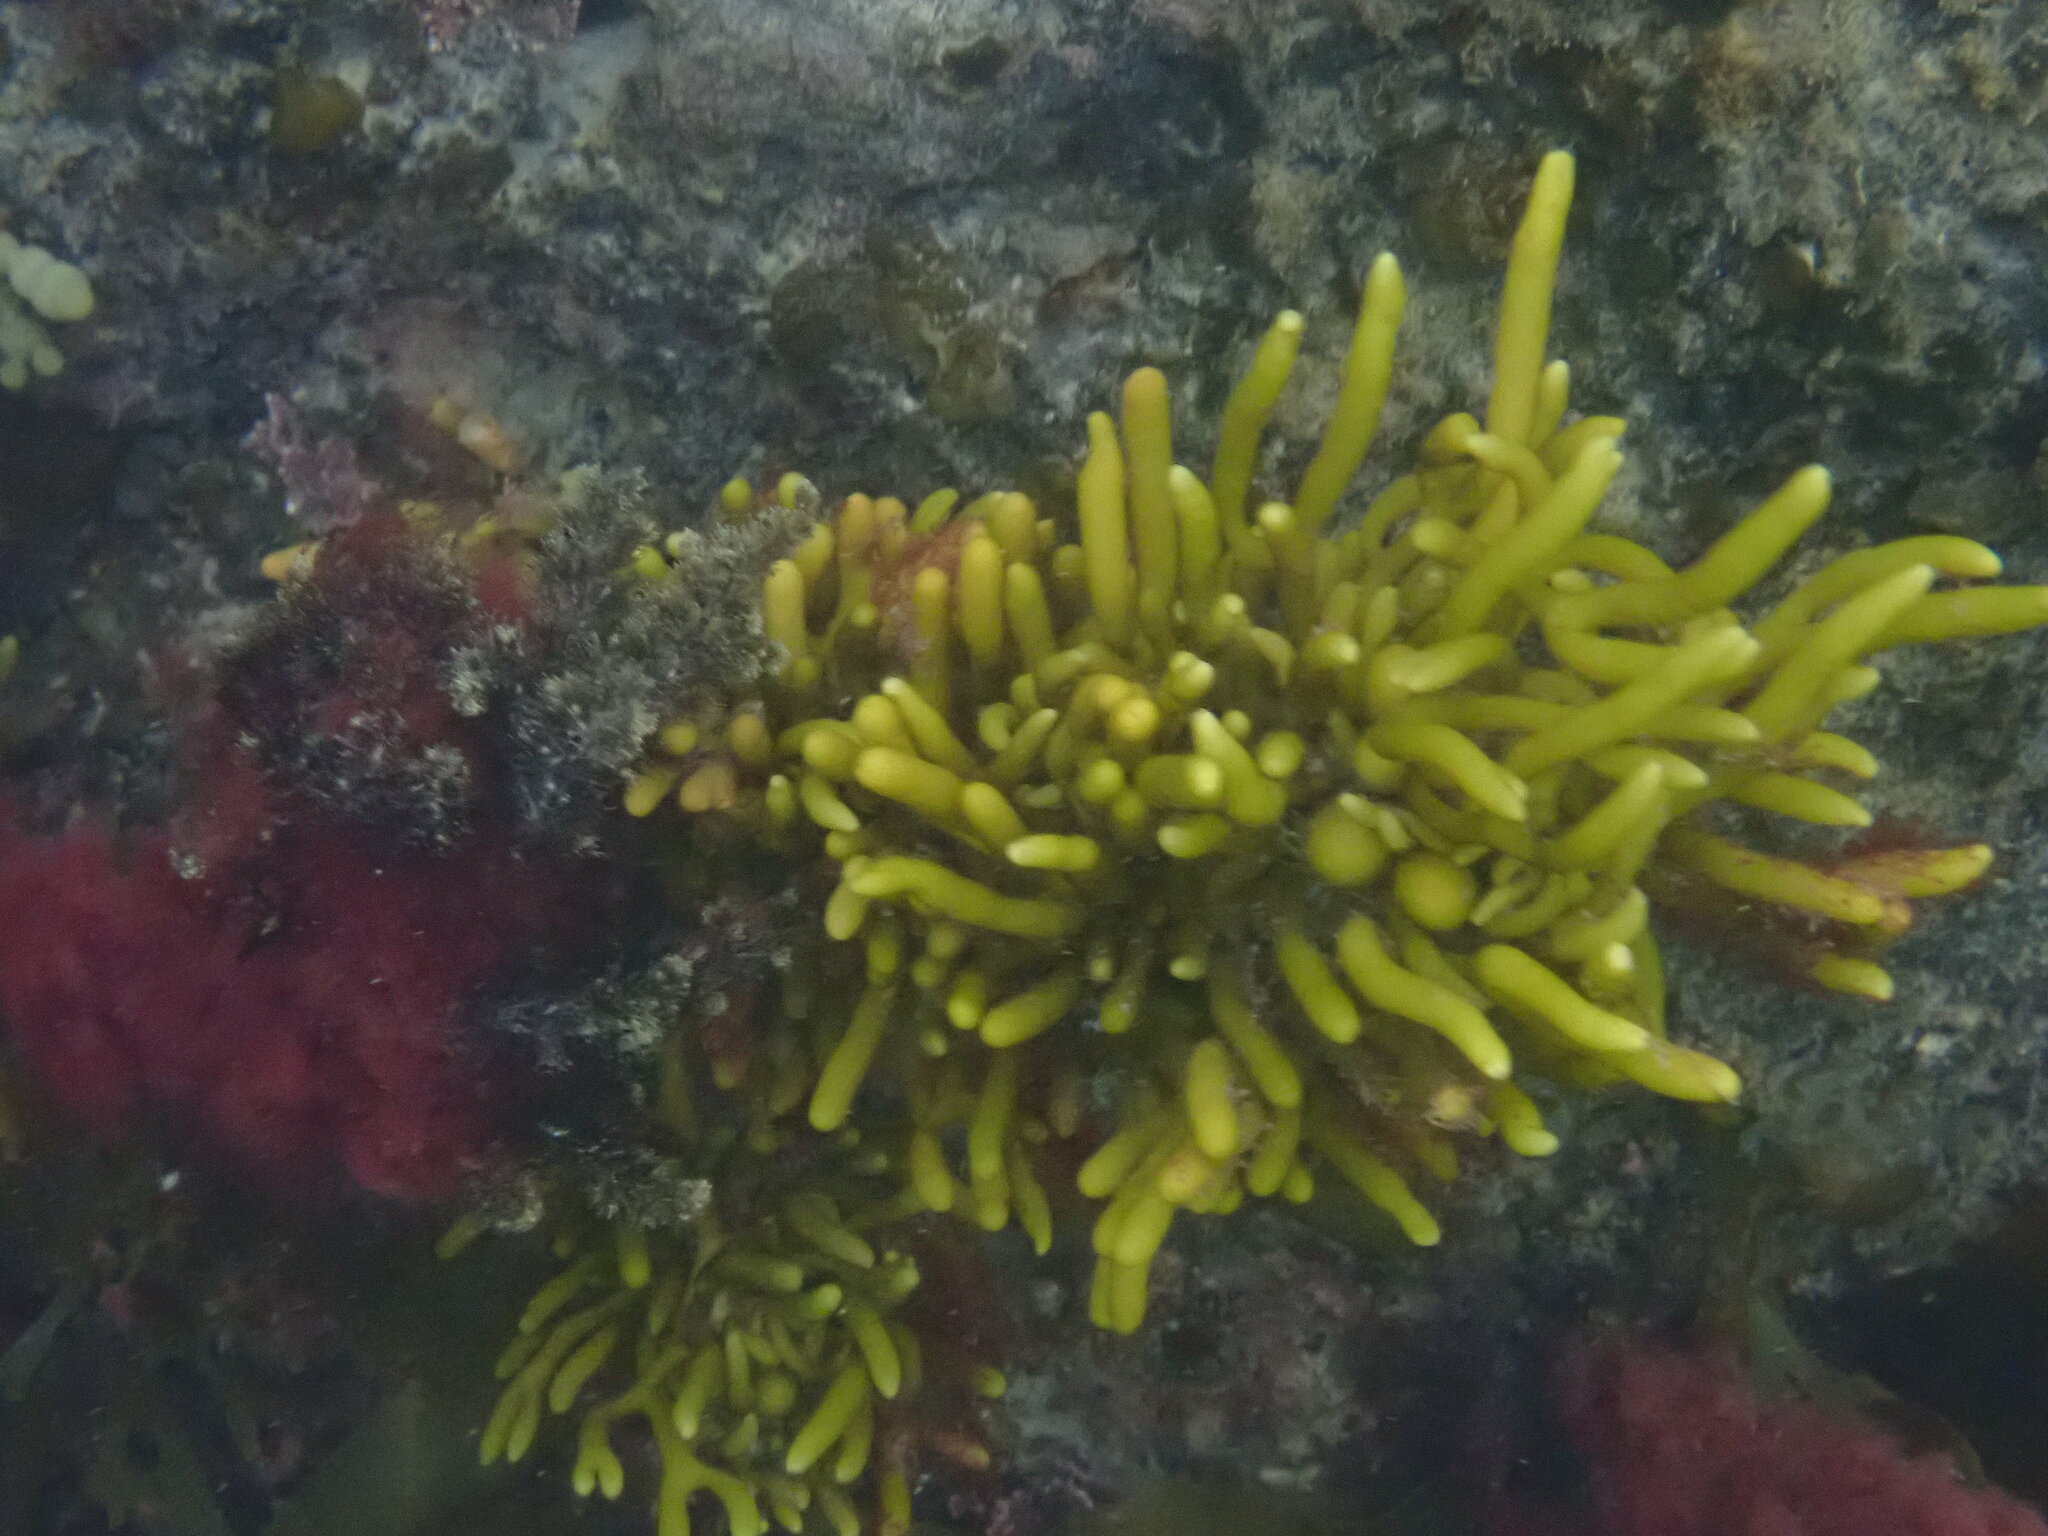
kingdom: Chromista
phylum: Ochrophyta
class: Phaeophyceae
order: Fucales
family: Sargassaceae
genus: Cystophora
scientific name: Cystophora torulosa
